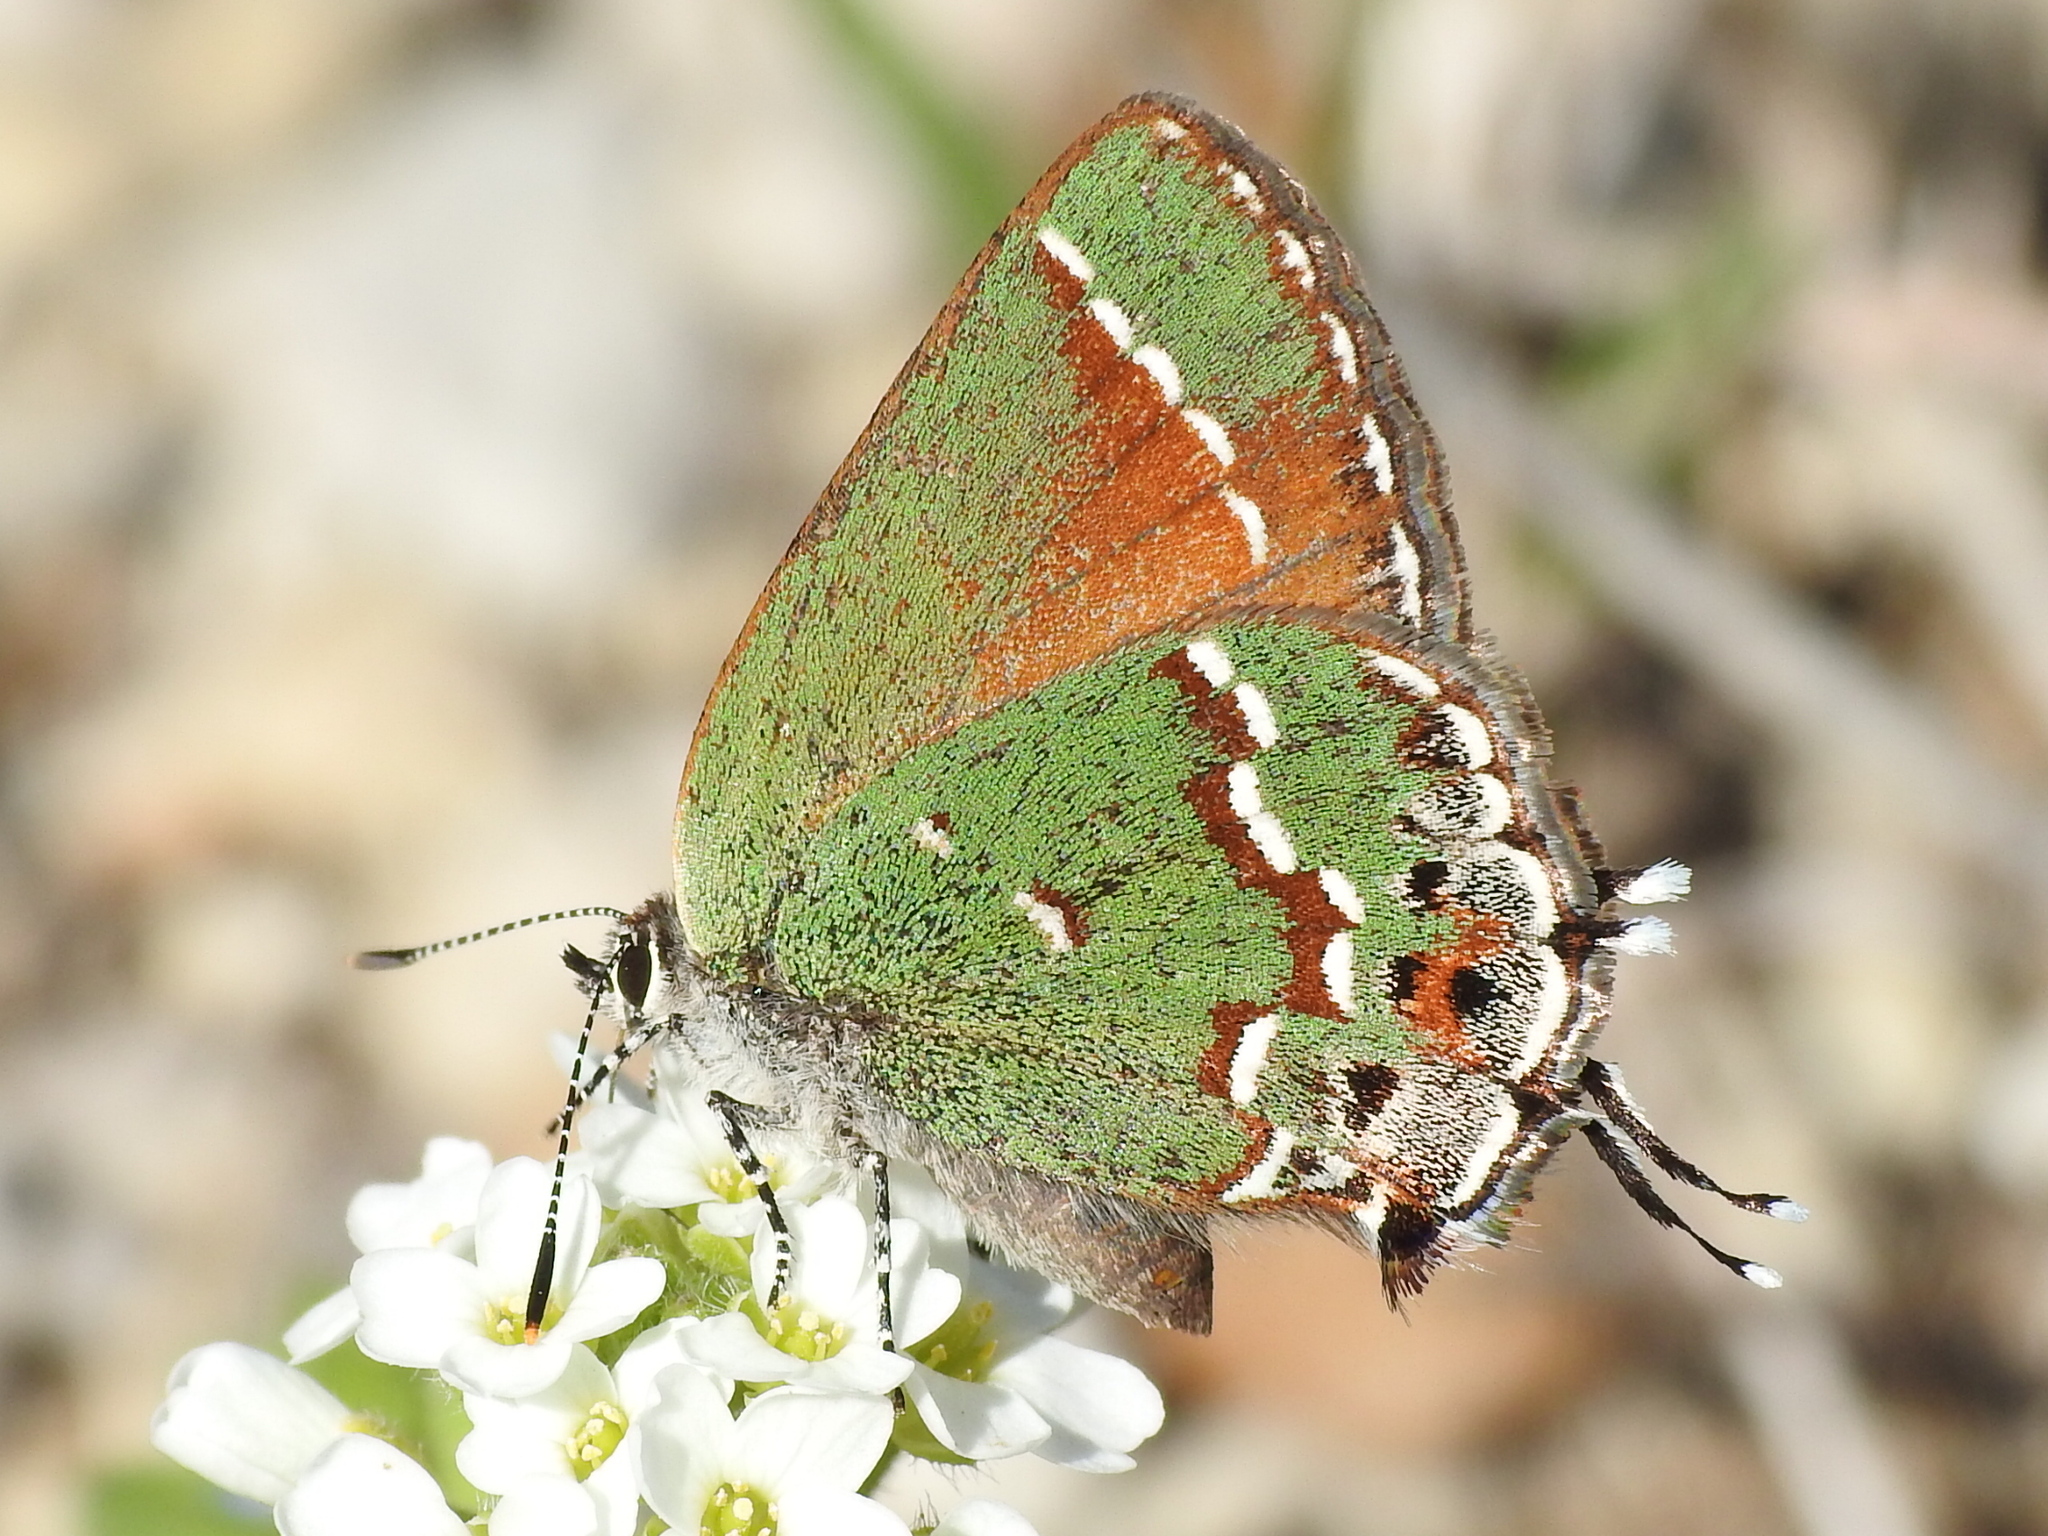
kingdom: Animalia
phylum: Arthropoda
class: Insecta
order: Lepidoptera
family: Lycaenidae
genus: Mitoura
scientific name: Mitoura gryneus
